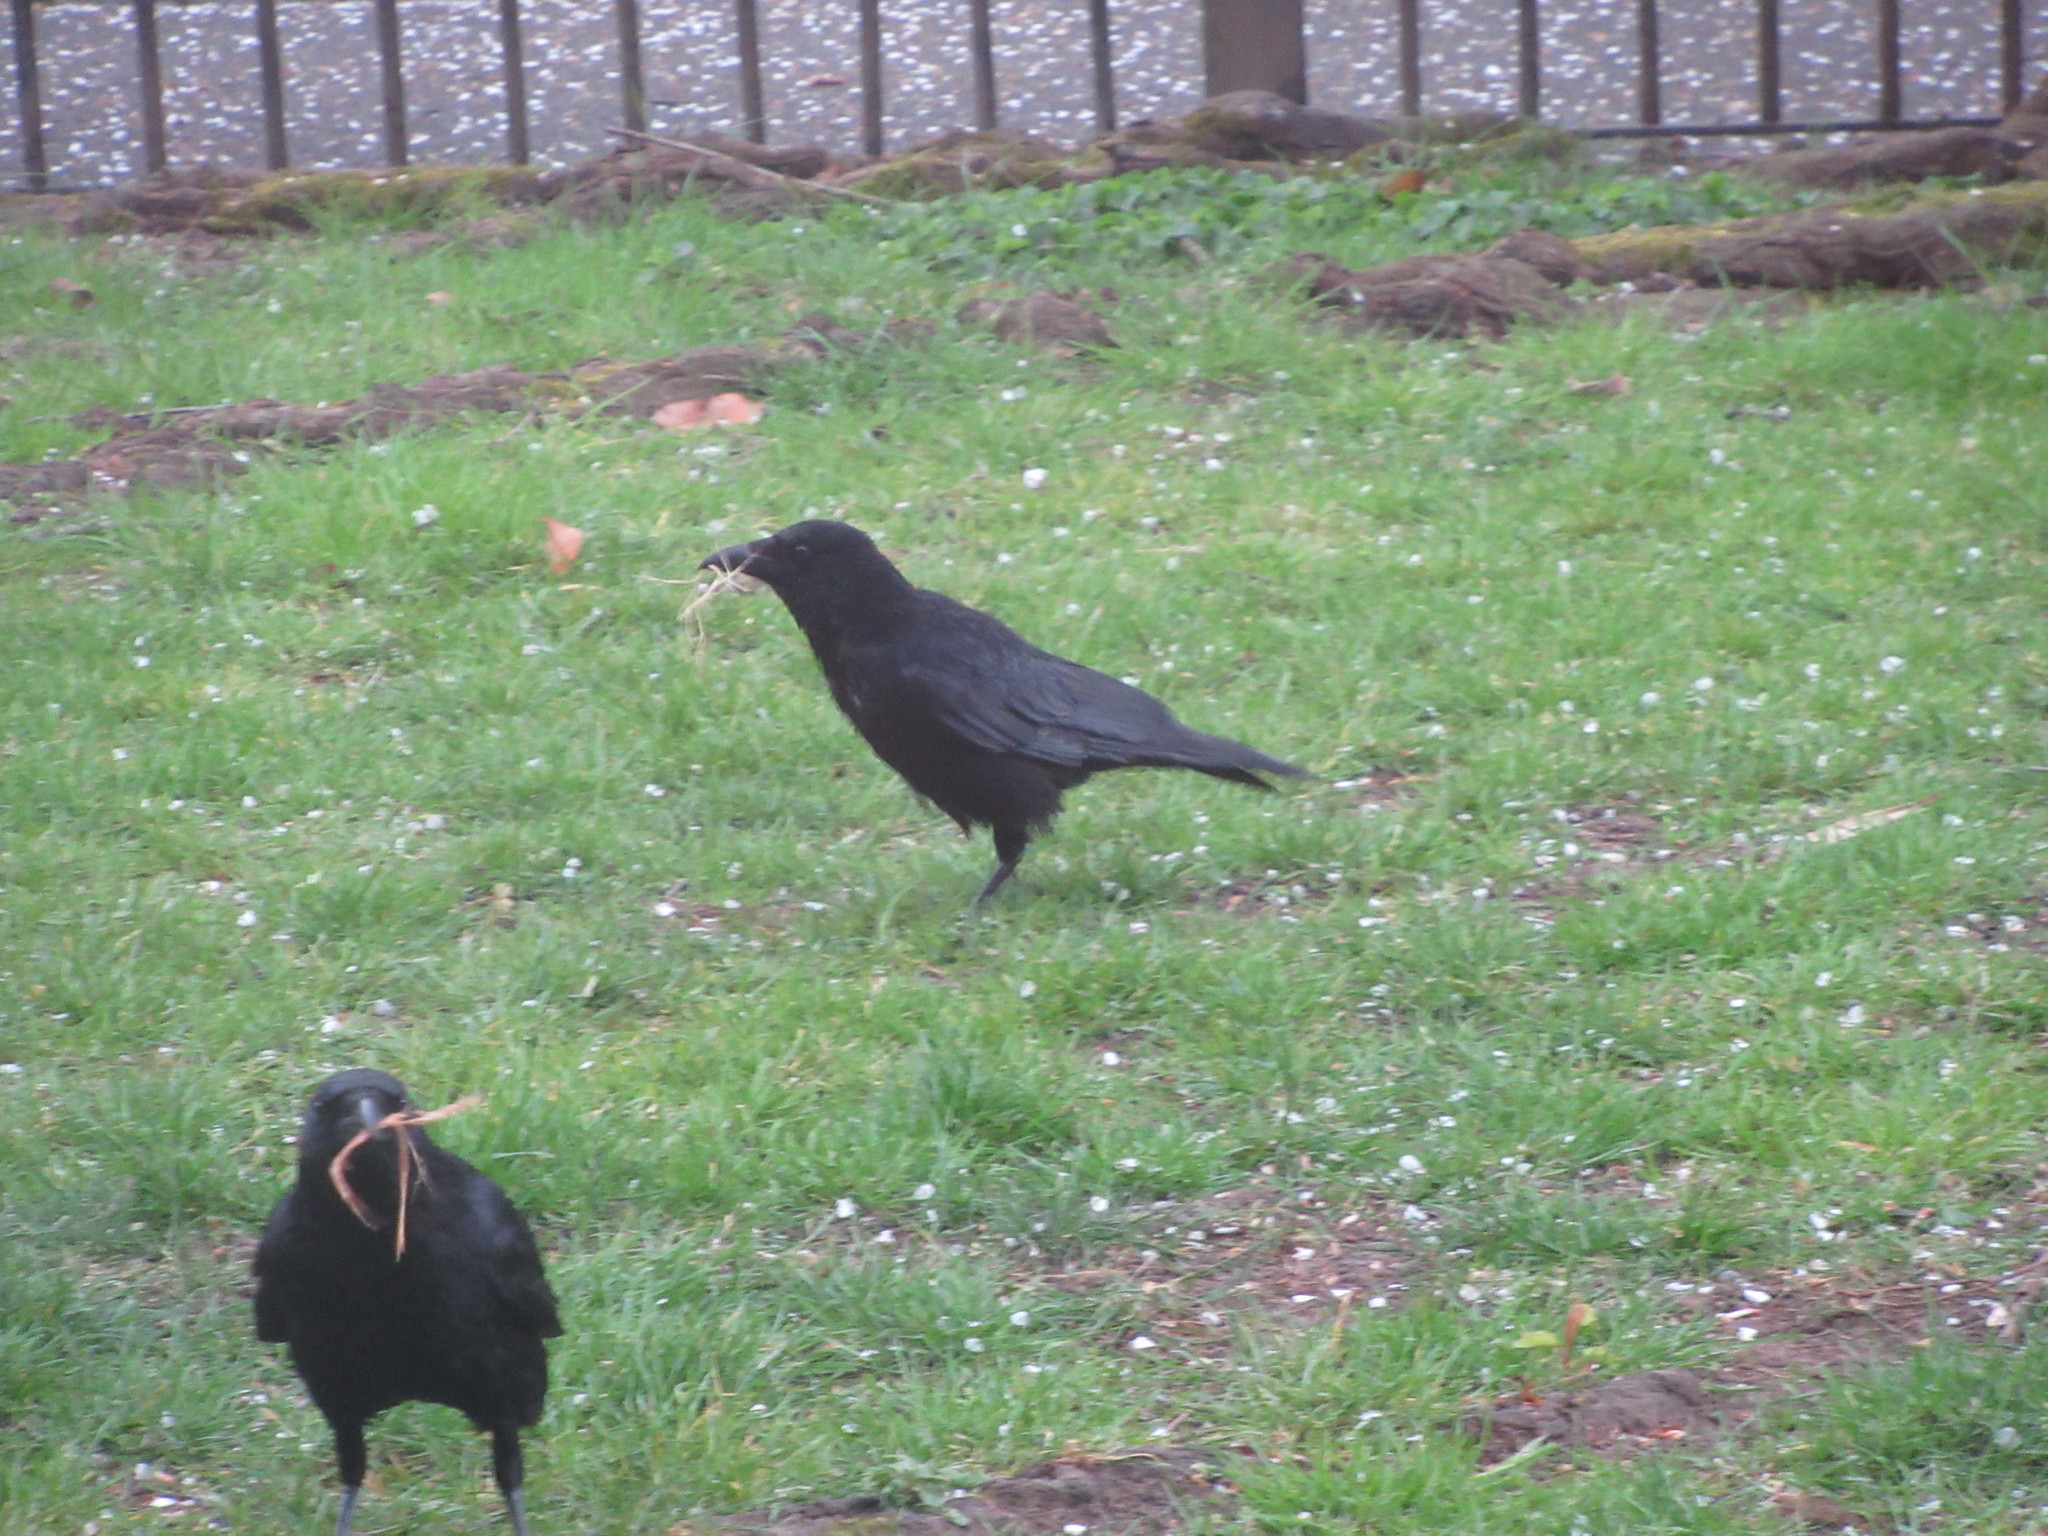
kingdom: Animalia
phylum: Chordata
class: Aves
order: Passeriformes
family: Corvidae
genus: Corvus
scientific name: Corvus corone
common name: Carrion crow
